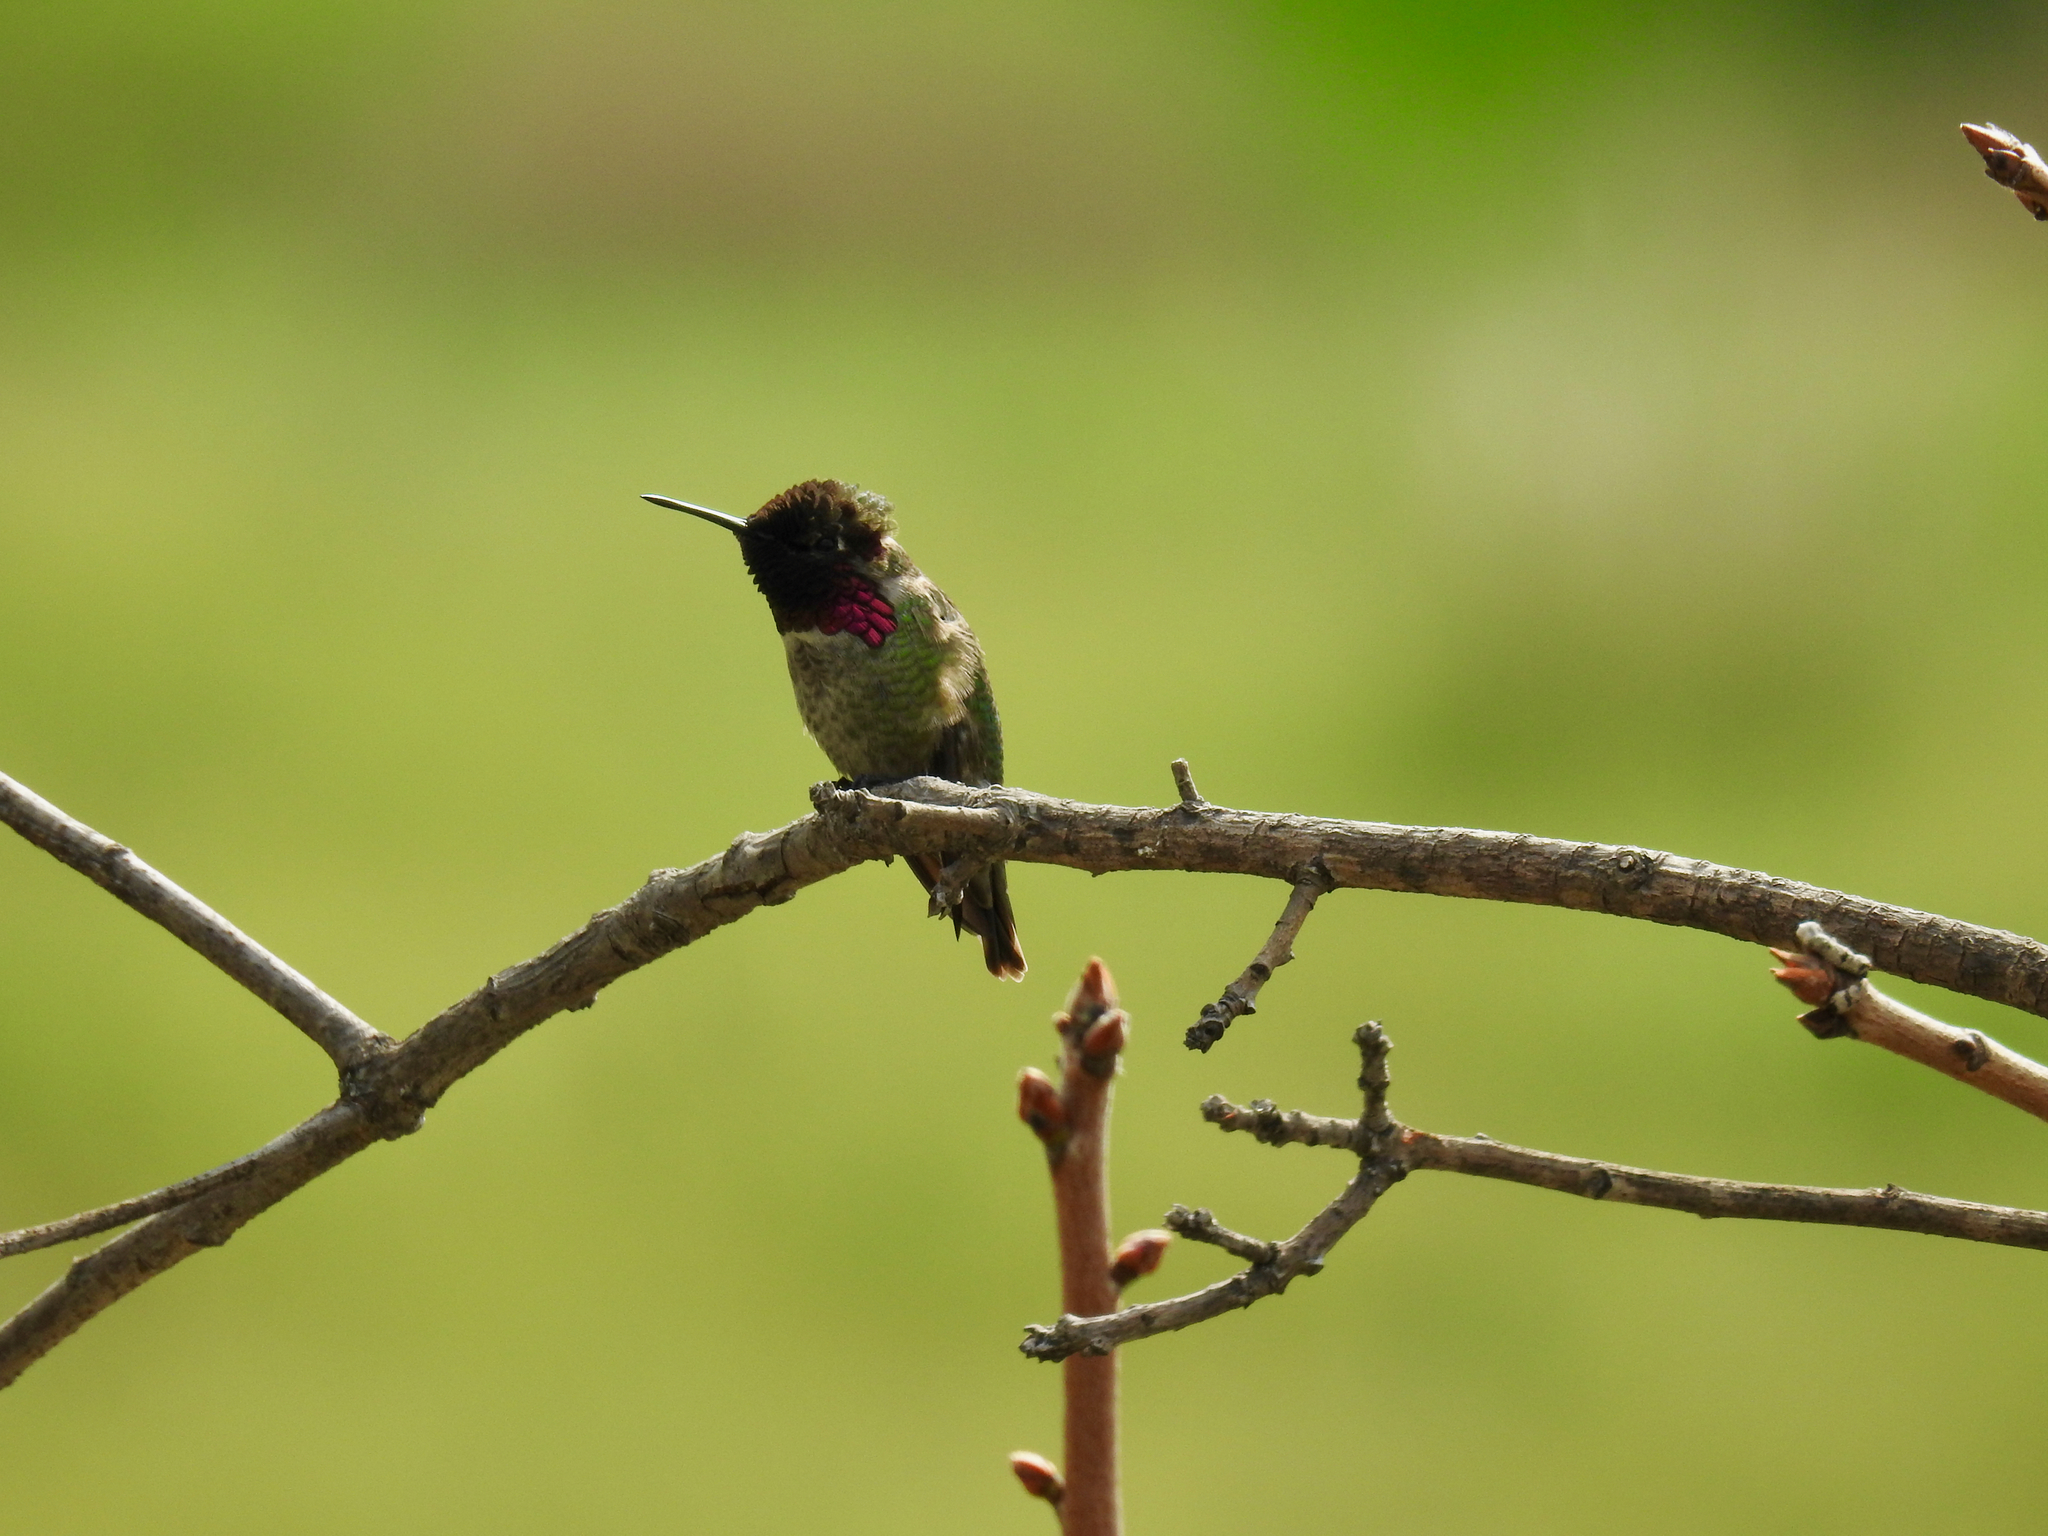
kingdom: Animalia
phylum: Chordata
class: Aves
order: Apodiformes
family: Trochilidae
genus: Calypte
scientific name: Calypte anna
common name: Anna's hummingbird
